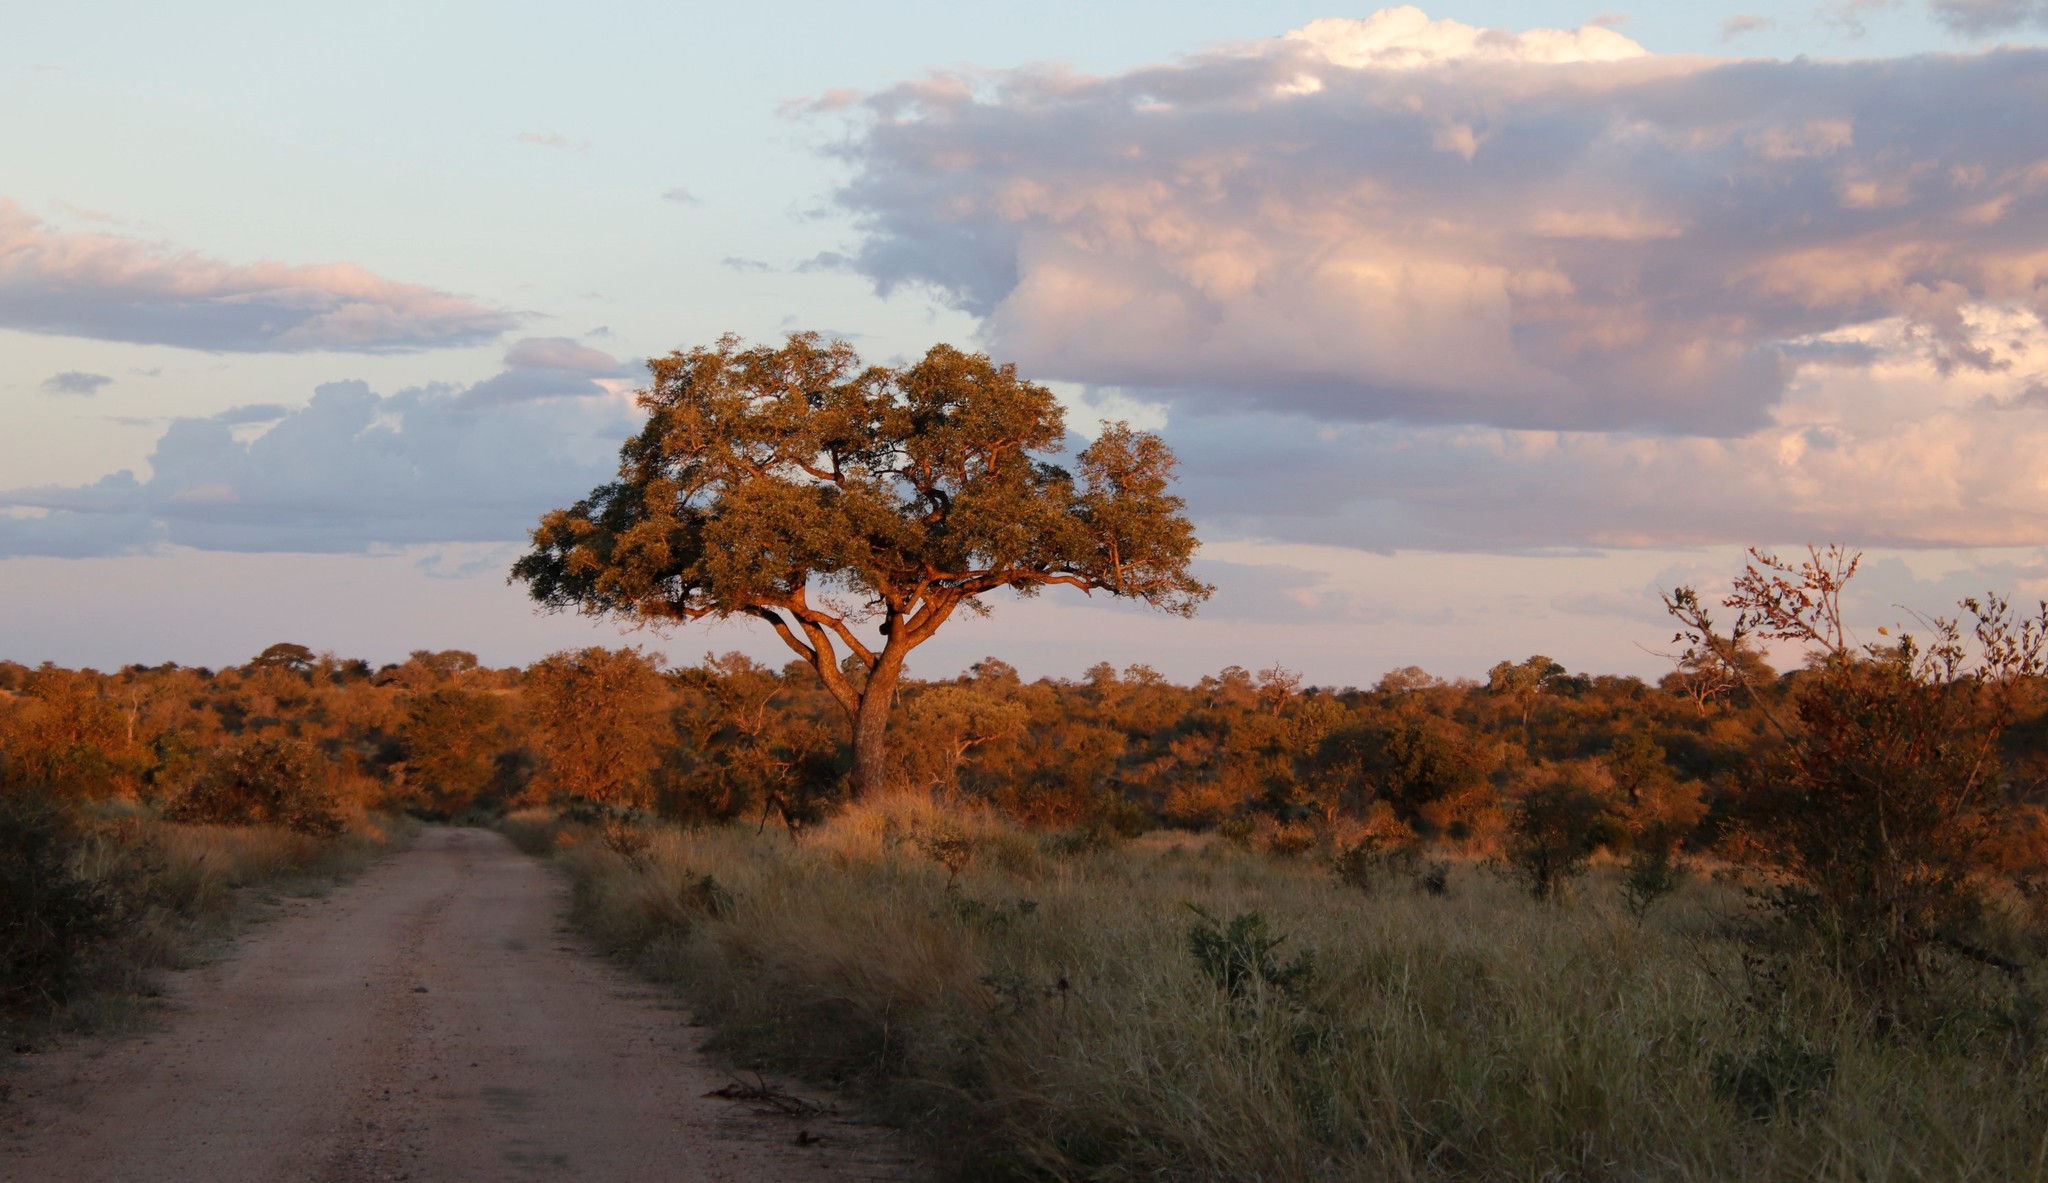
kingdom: Plantae
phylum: Tracheophyta
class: Magnoliopsida
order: Sapindales
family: Anacardiaceae
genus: Sclerocarya
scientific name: Sclerocarya birrea
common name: Marula
